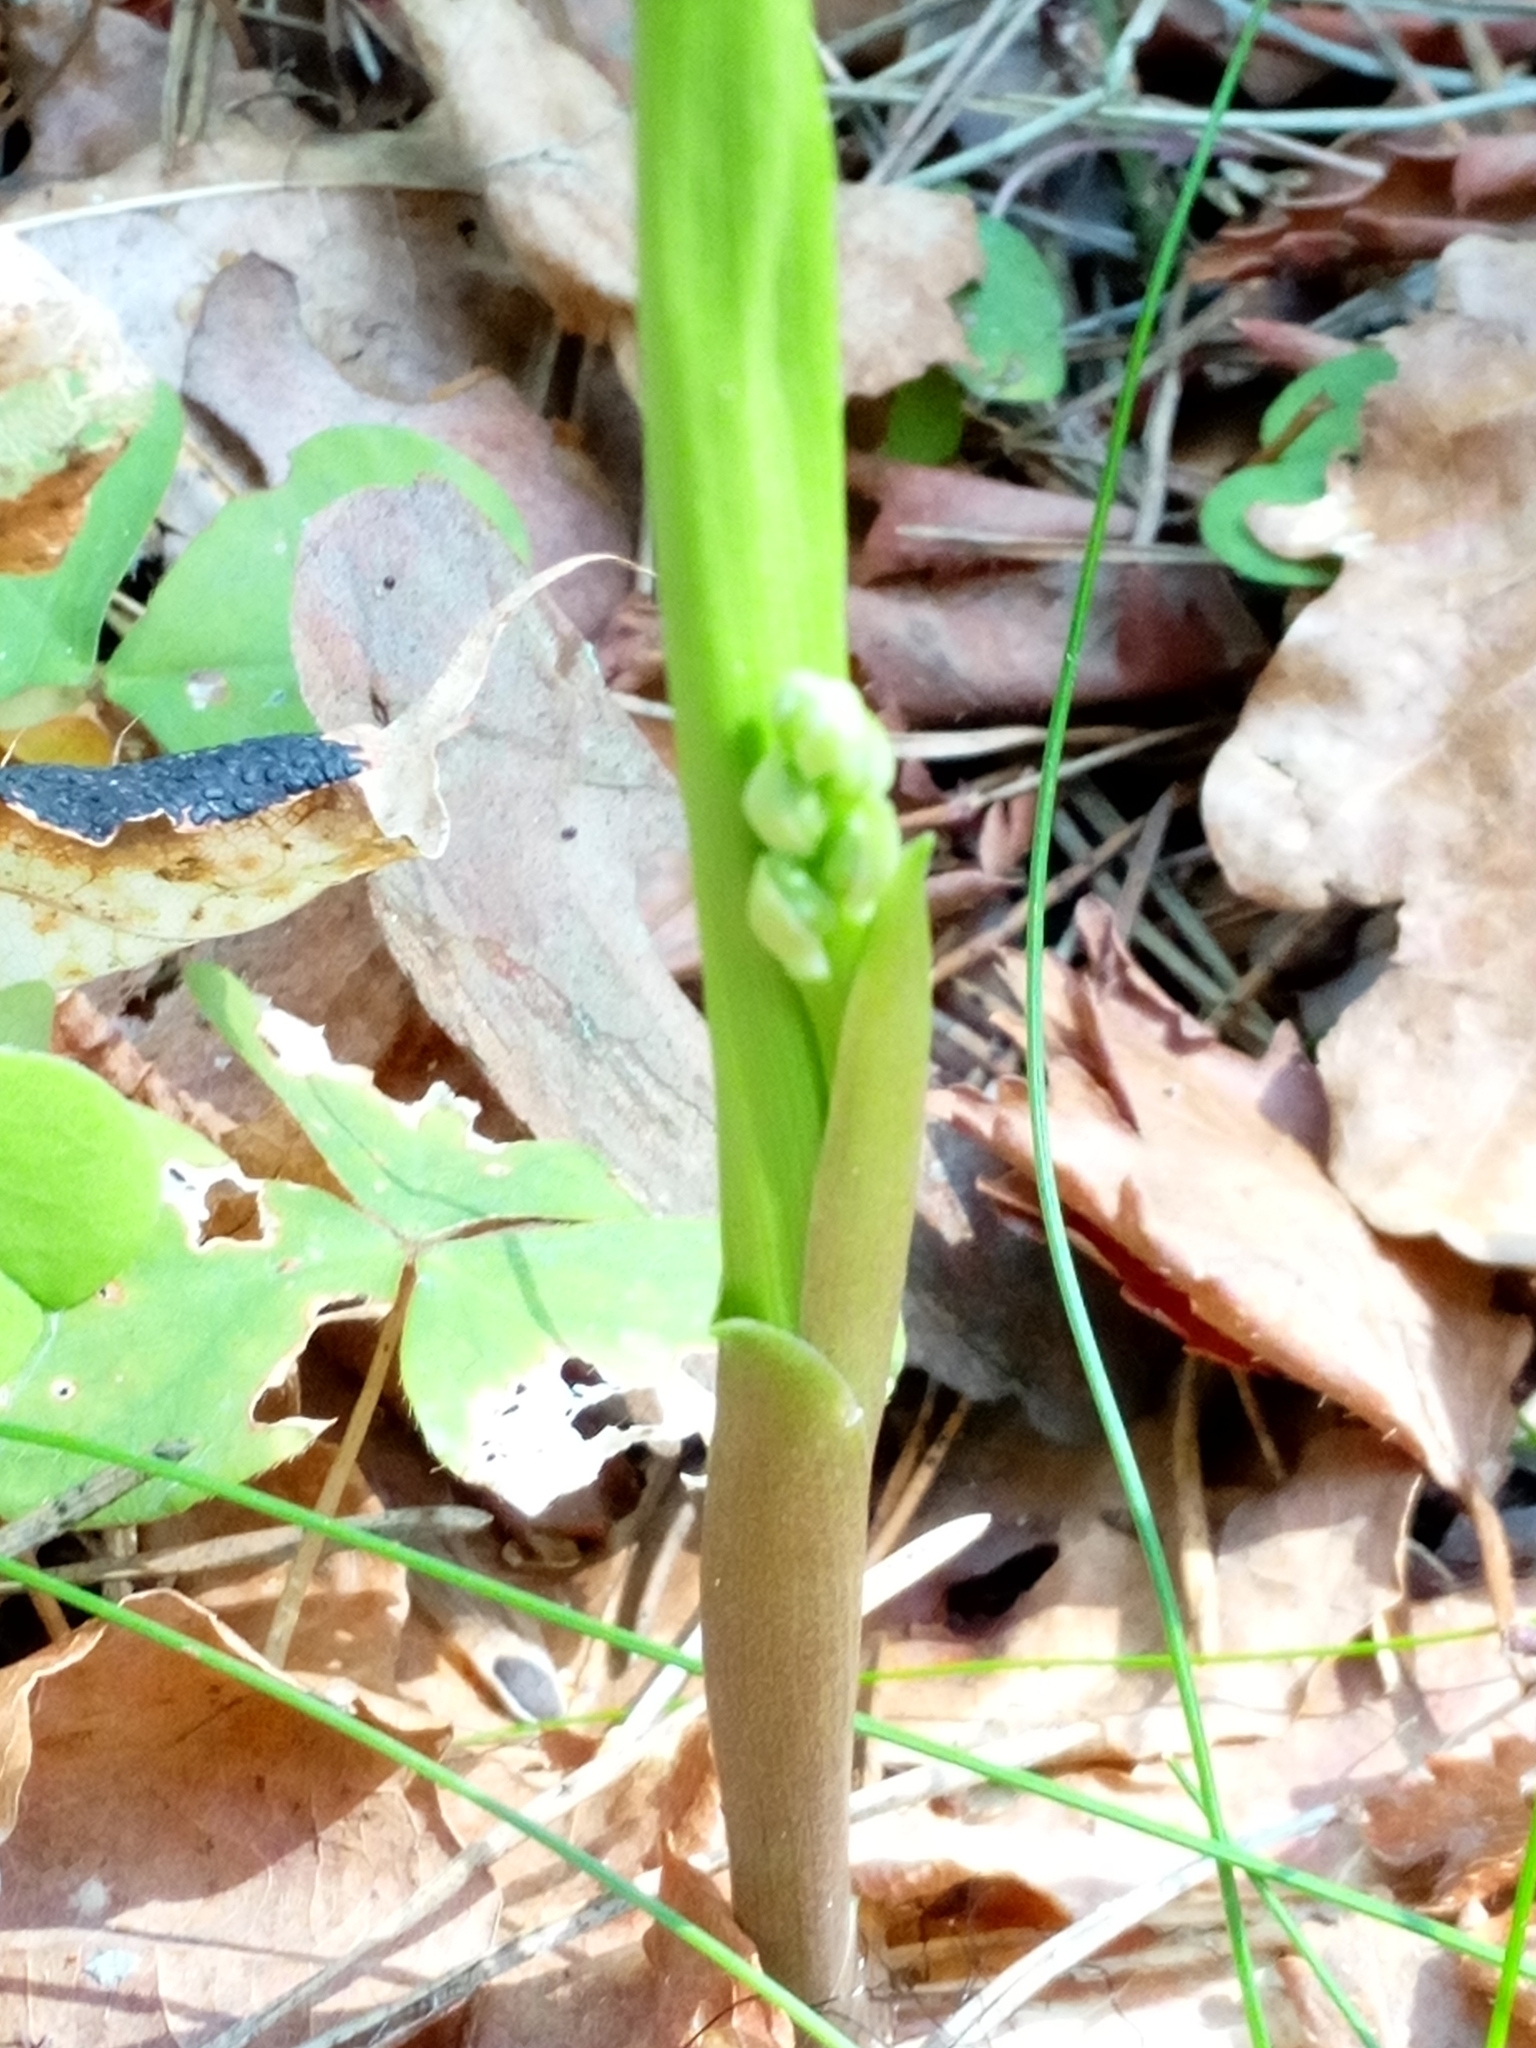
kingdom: Plantae
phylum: Tracheophyta
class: Liliopsida
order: Asparagales
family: Asparagaceae
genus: Convallaria
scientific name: Convallaria majalis
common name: Lily-of-the-valley
